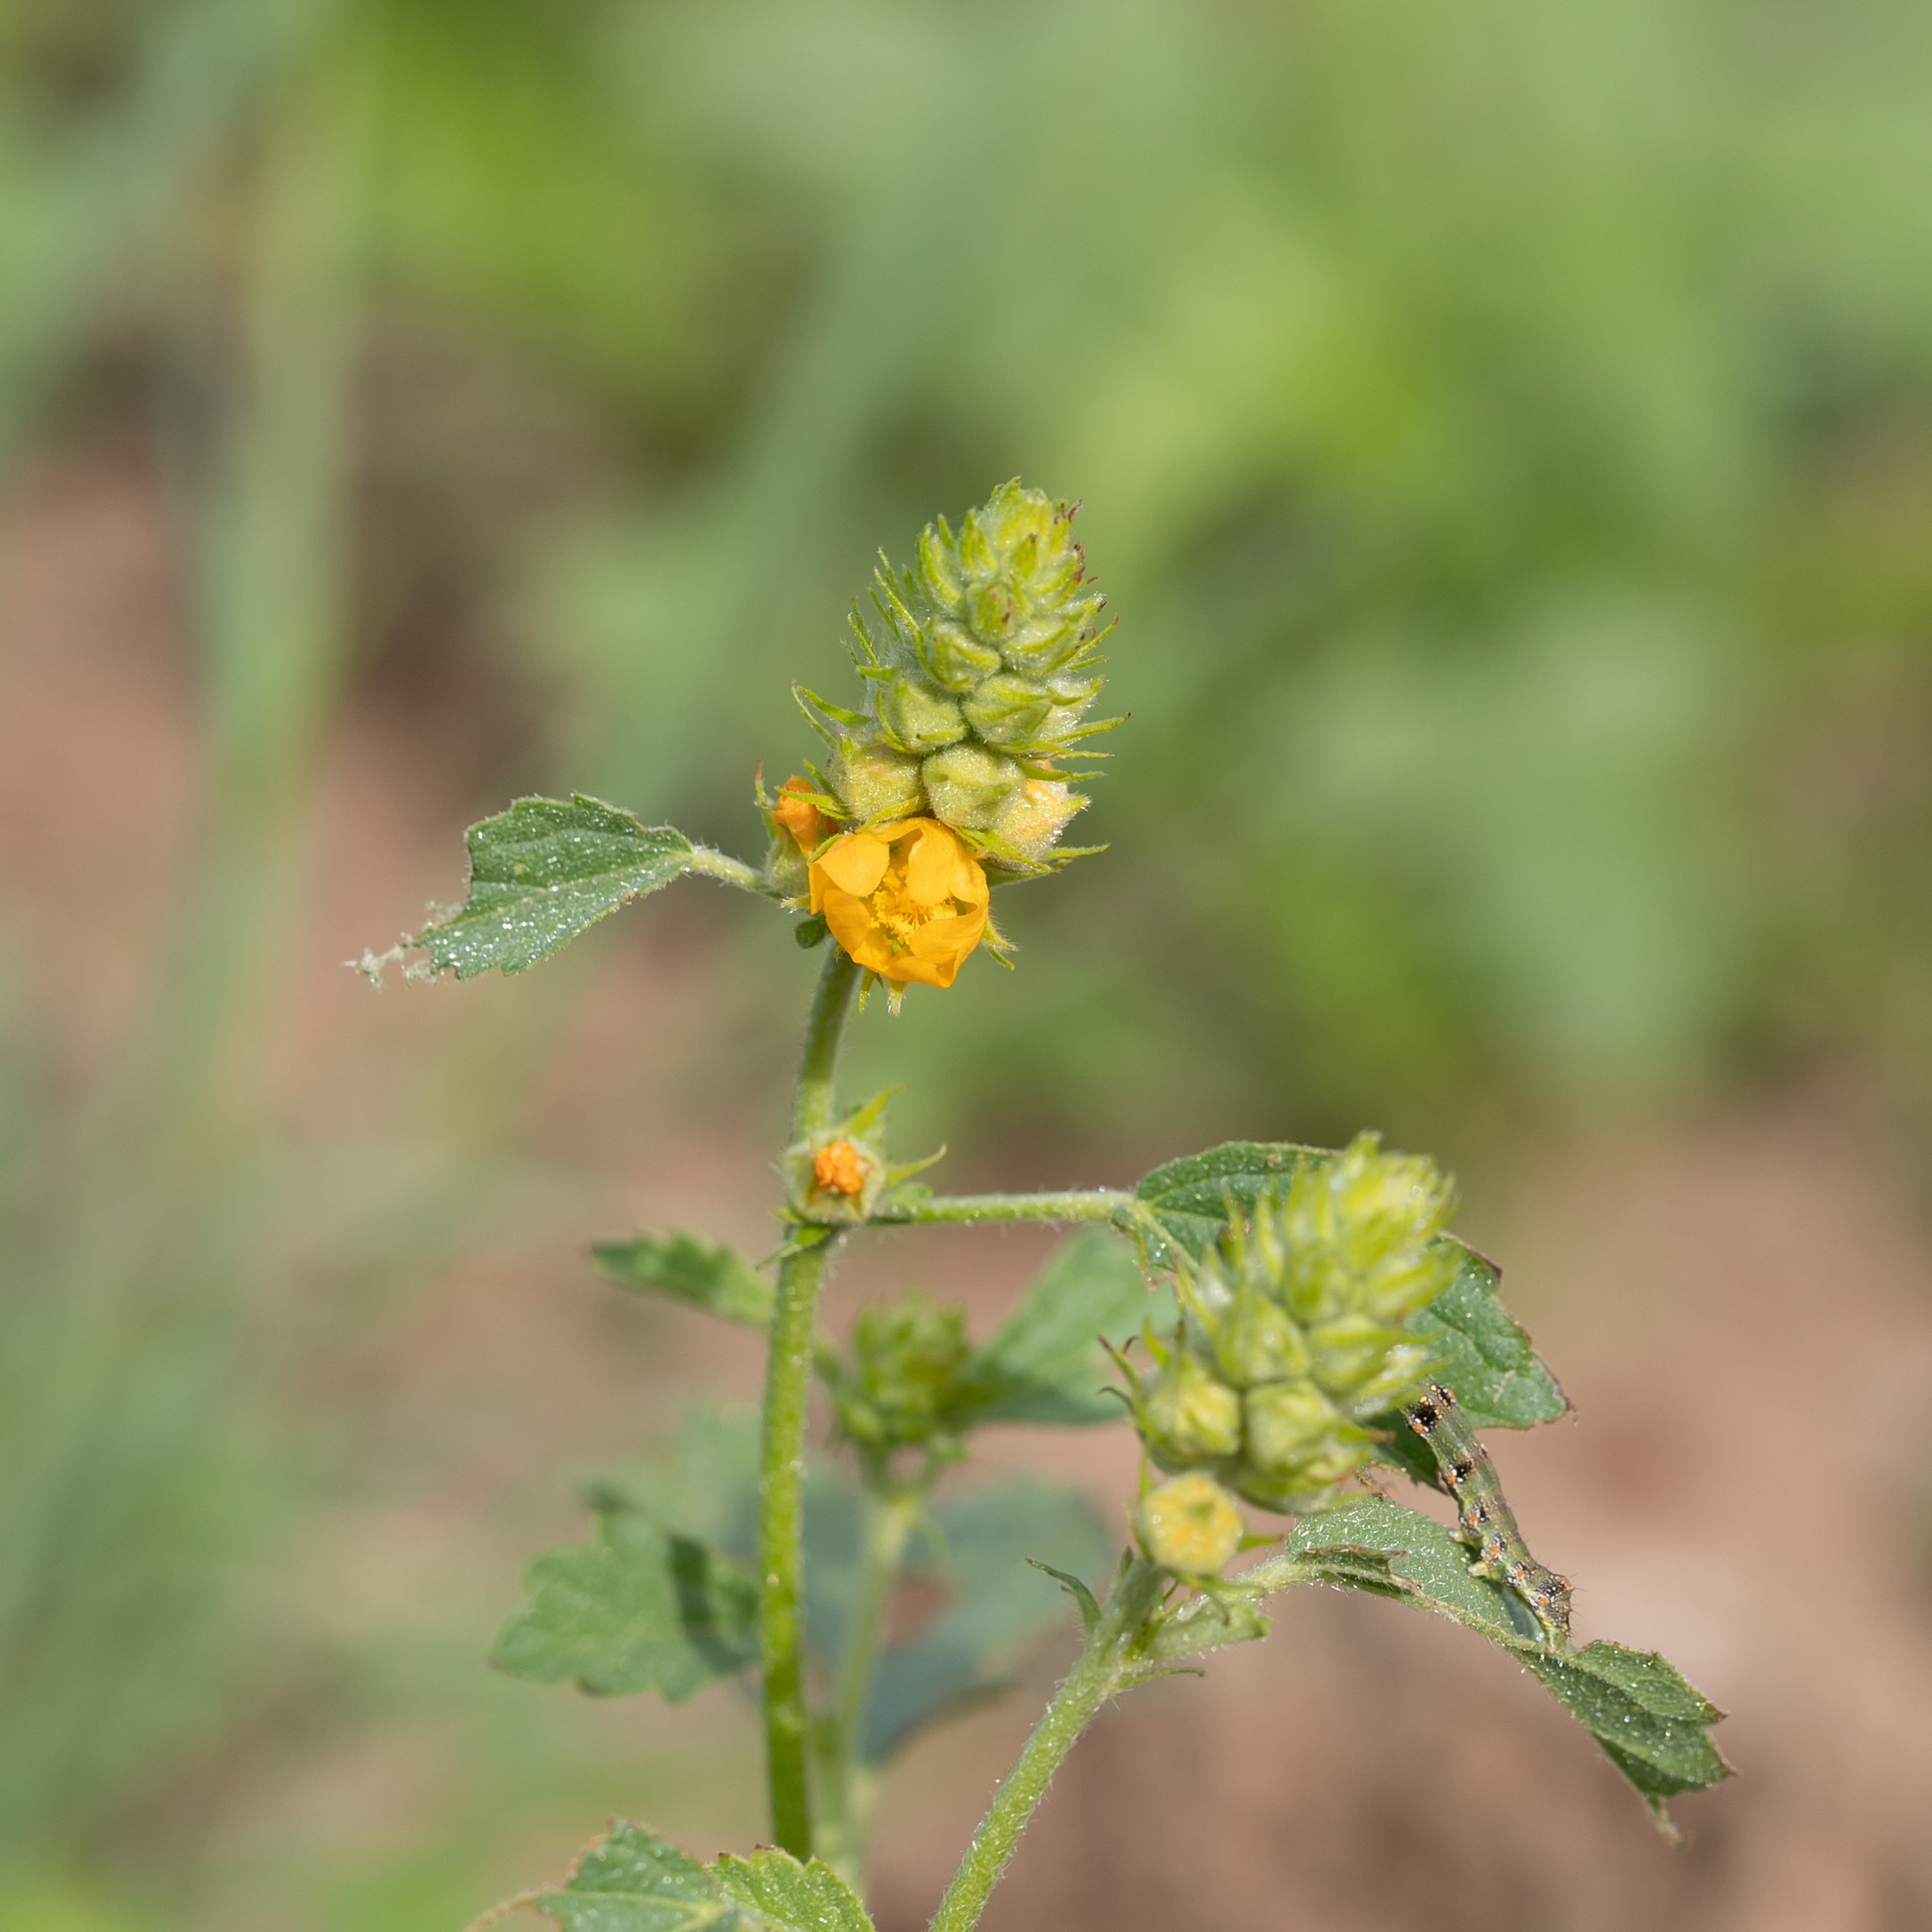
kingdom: Plantae
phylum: Tracheophyta
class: Magnoliopsida
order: Malvales
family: Malvaceae
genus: Malvastrum
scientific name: Malvastrum americanum
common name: Spiked malvastrum
